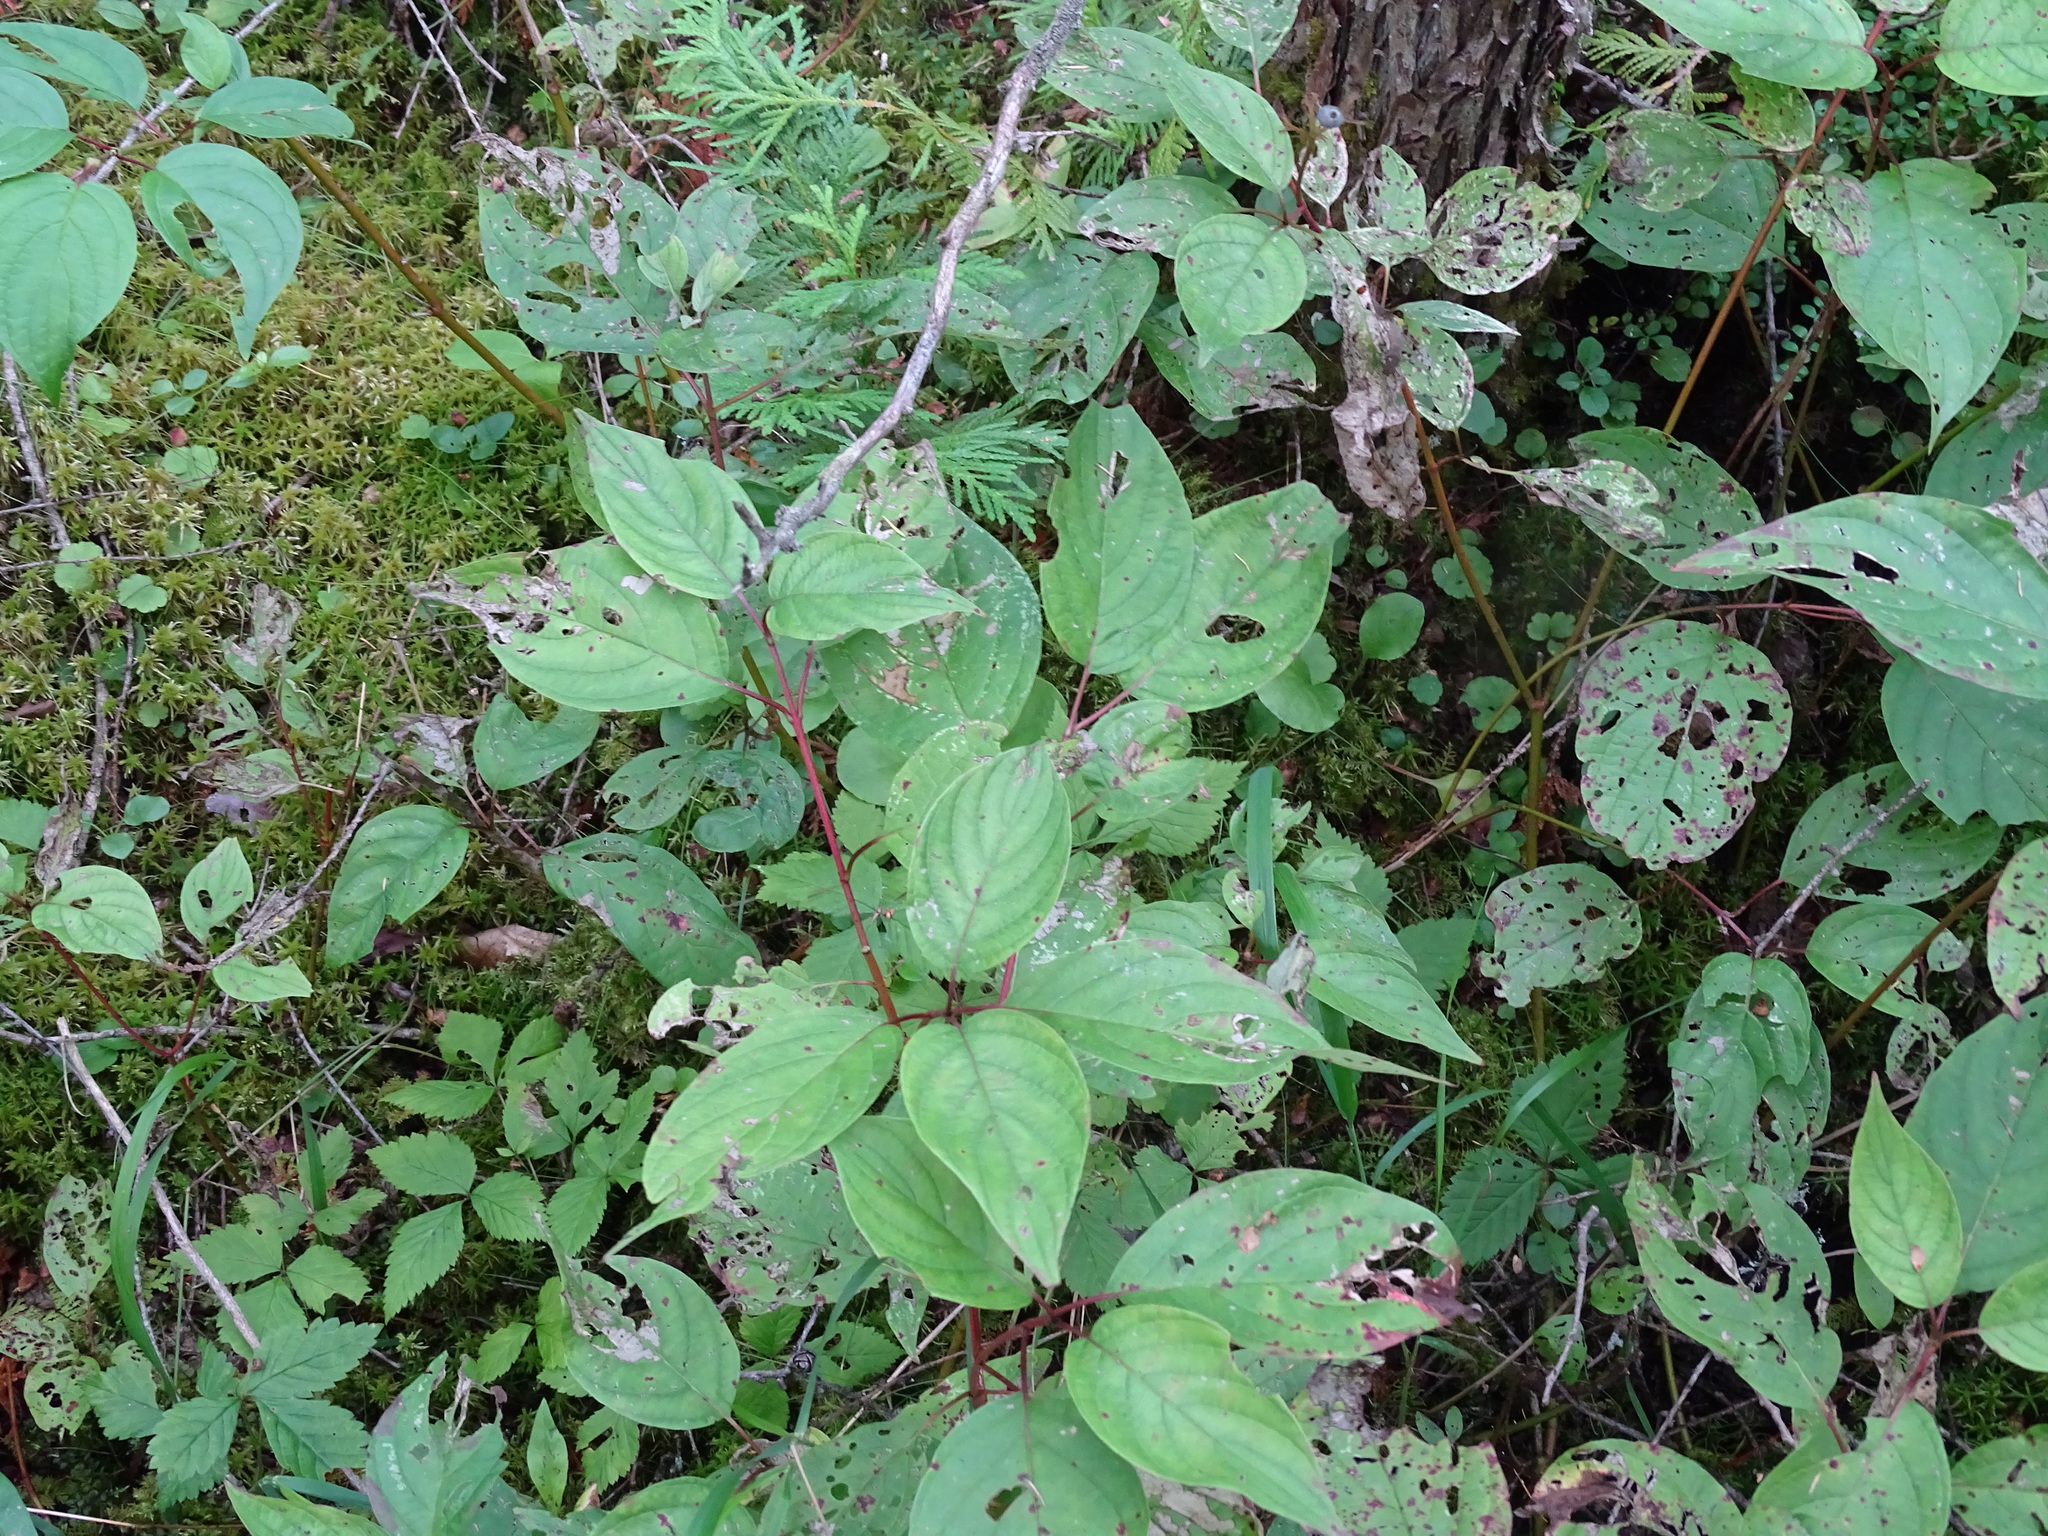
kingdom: Plantae
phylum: Tracheophyta
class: Magnoliopsida
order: Cornales
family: Cornaceae
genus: Cornus
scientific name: Cornus sericea
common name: Red-osier dogwood
